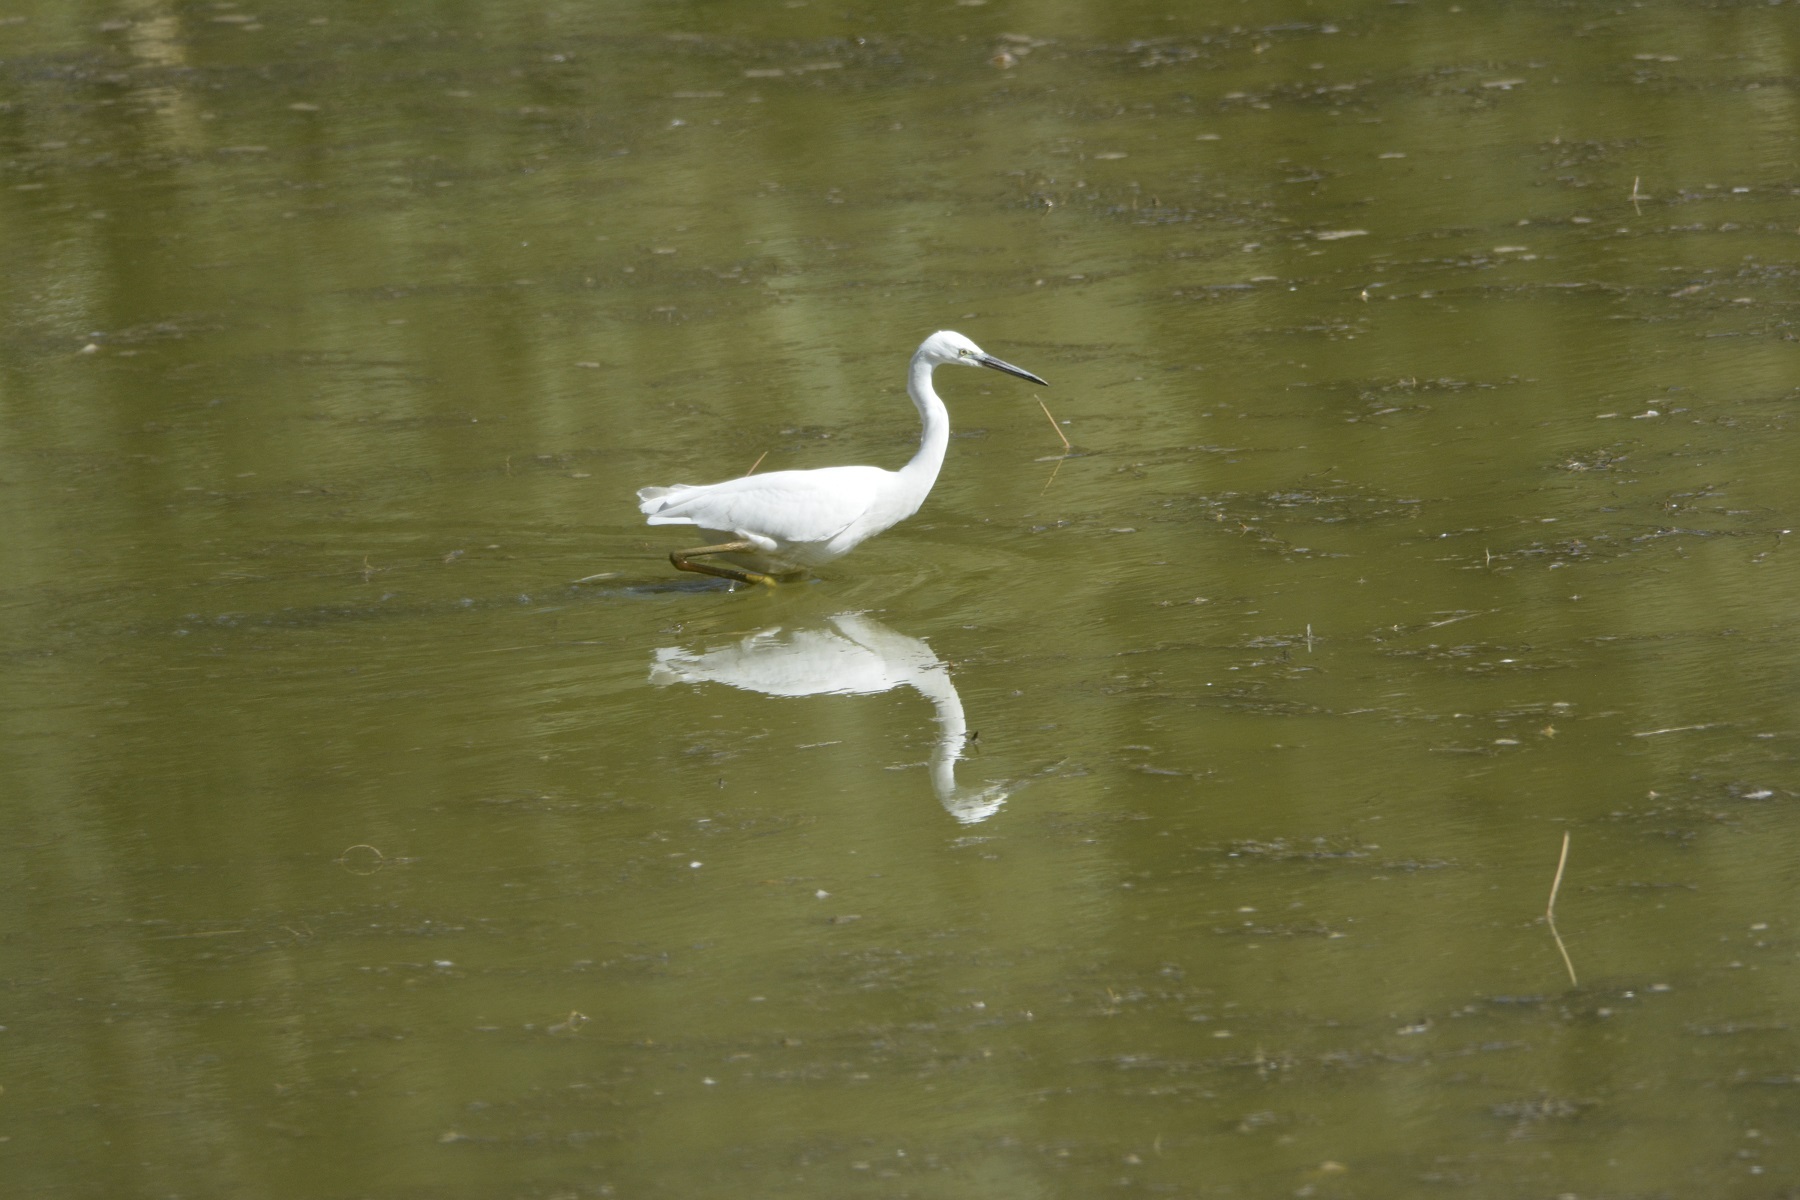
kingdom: Animalia
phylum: Chordata
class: Aves
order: Pelecaniformes
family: Ardeidae
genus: Egretta
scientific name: Egretta garzetta
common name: Little egret
